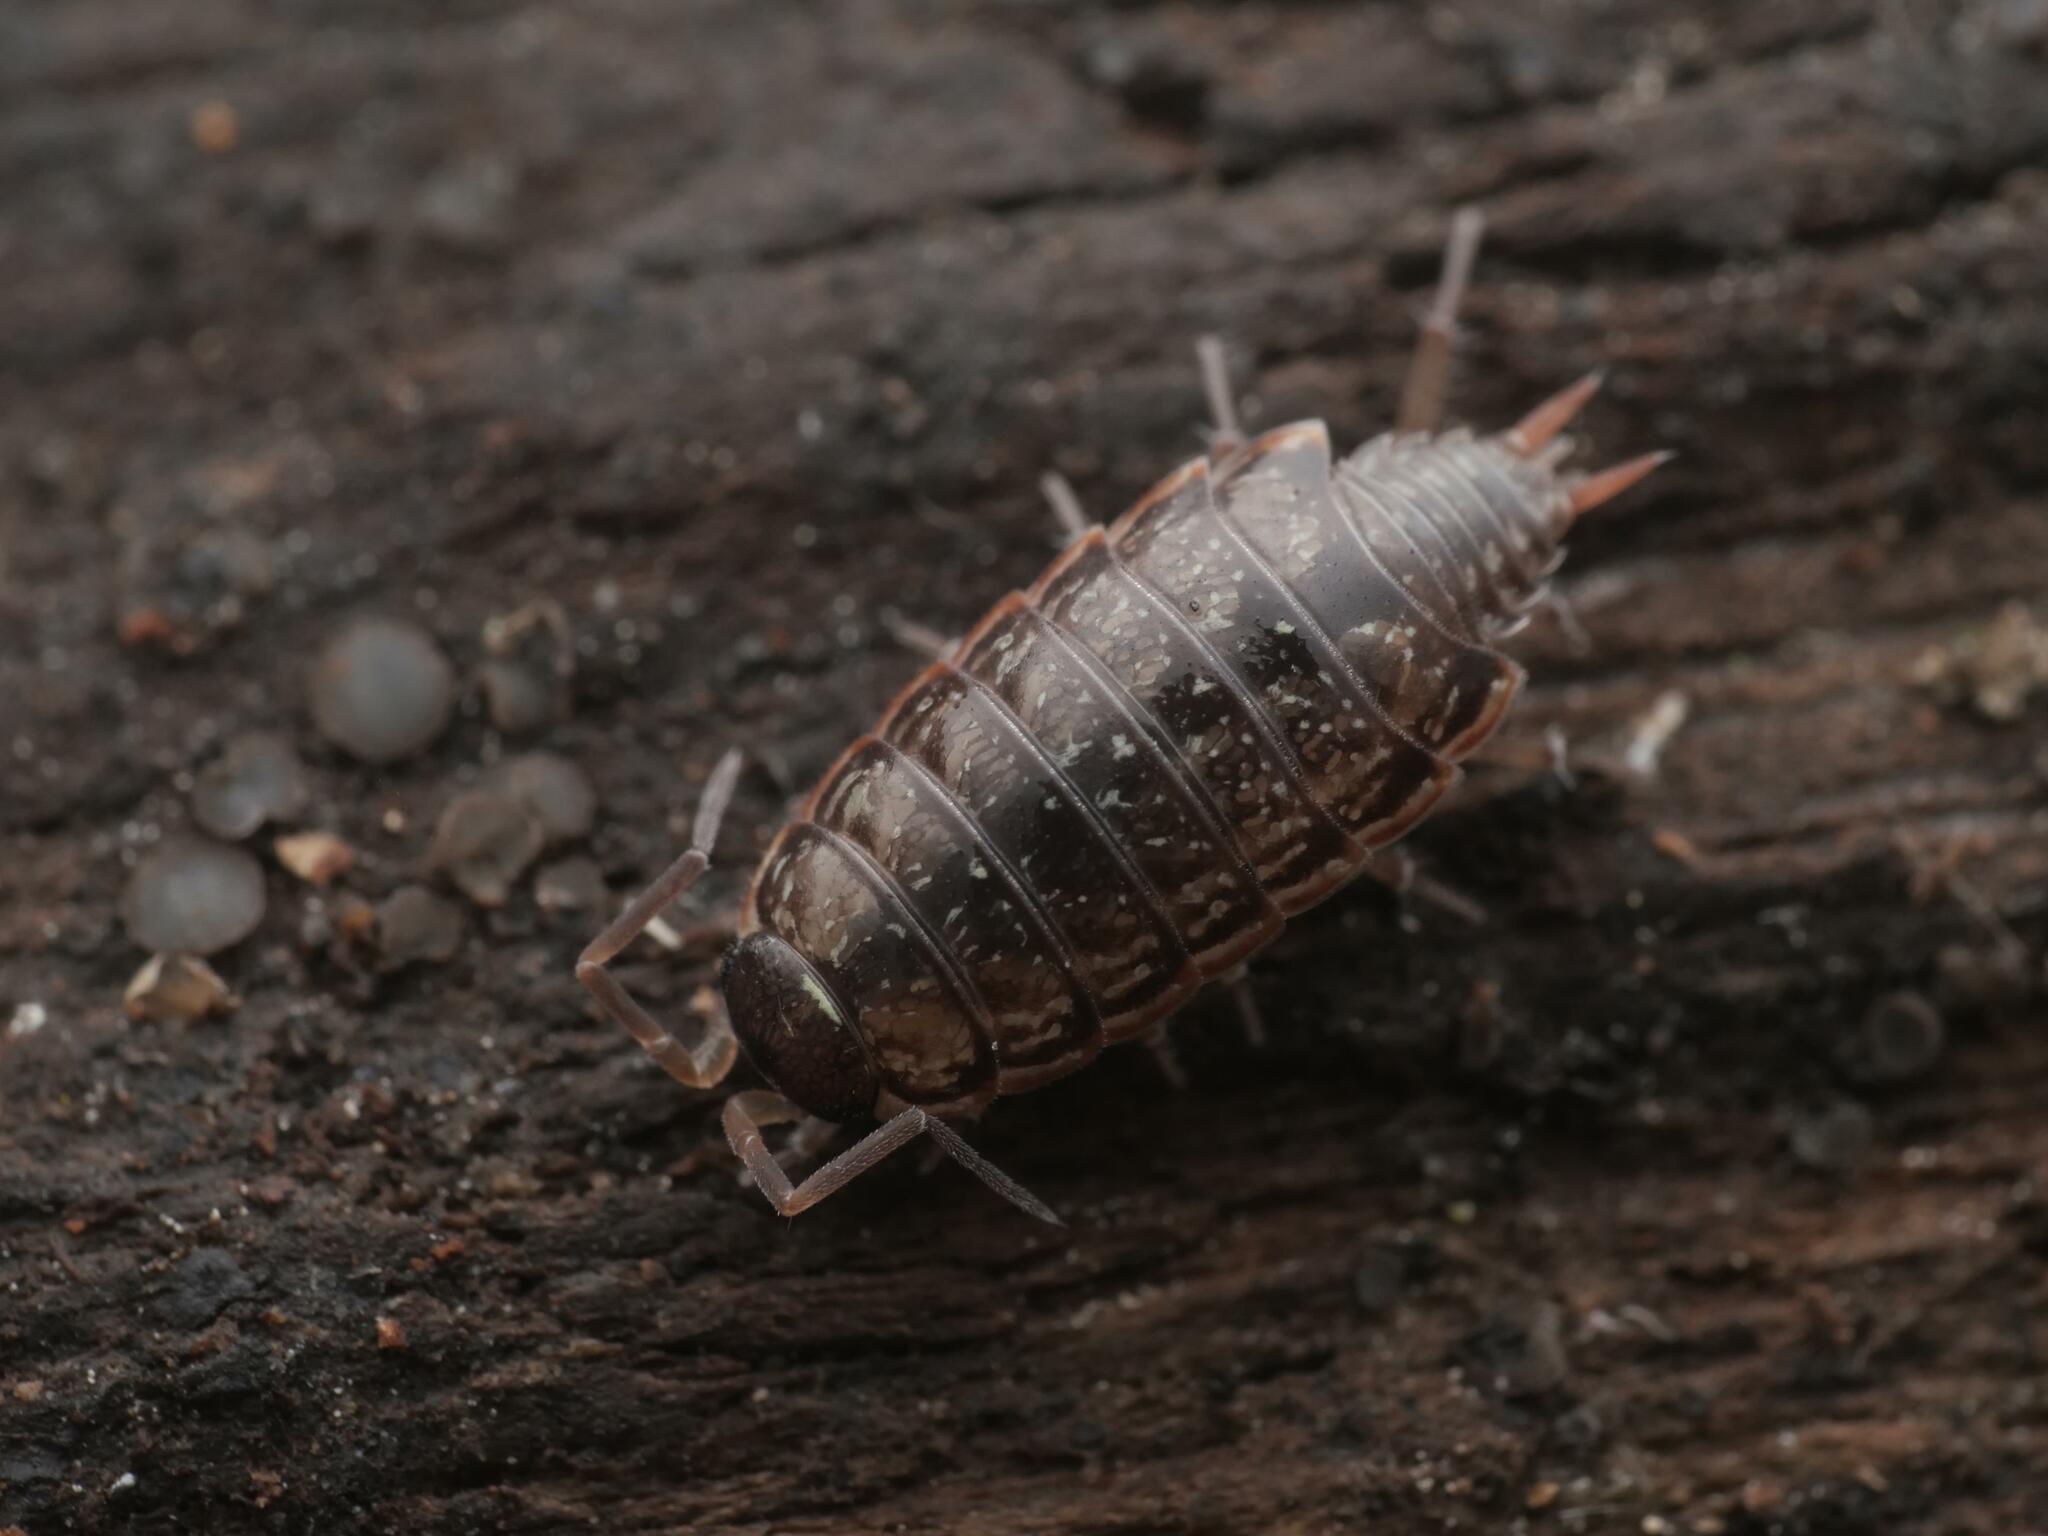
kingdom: Animalia
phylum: Arthropoda
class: Malacostraca
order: Isopoda
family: Philosciidae
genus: Philoscia
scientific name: Philoscia muscorum
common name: Common striped woodlouse
